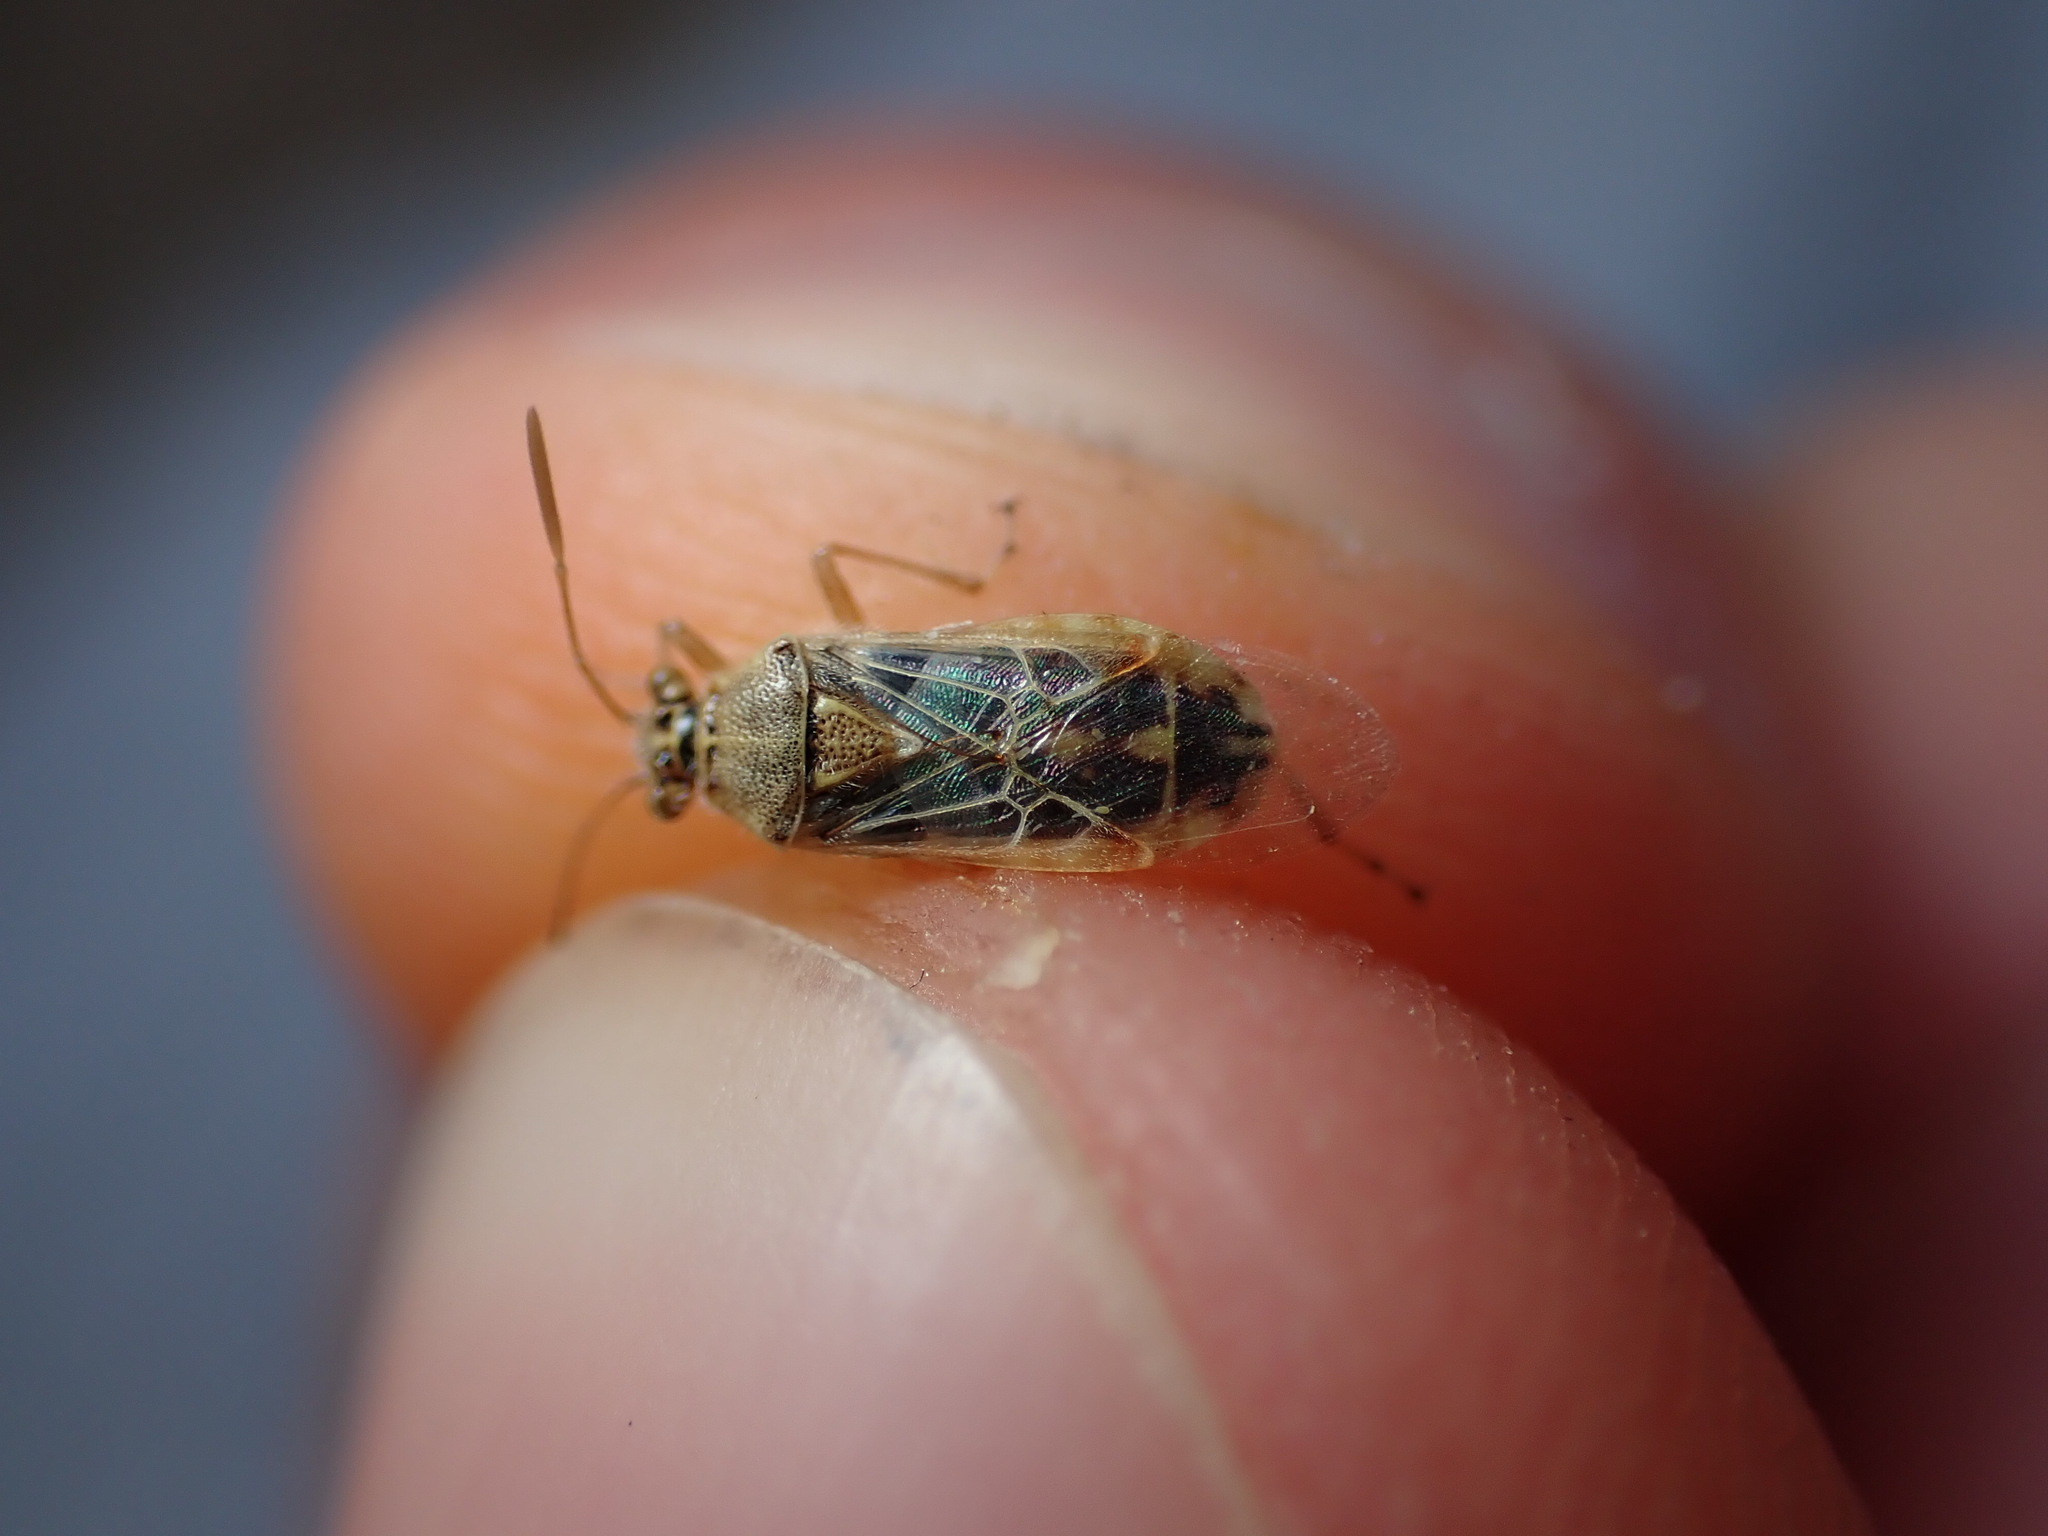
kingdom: Animalia
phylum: Arthropoda
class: Insecta
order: Hemiptera
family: Rhopalidae
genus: Liorhyssus
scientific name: Liorhyssus hyalinus
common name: Scentless plant bug
